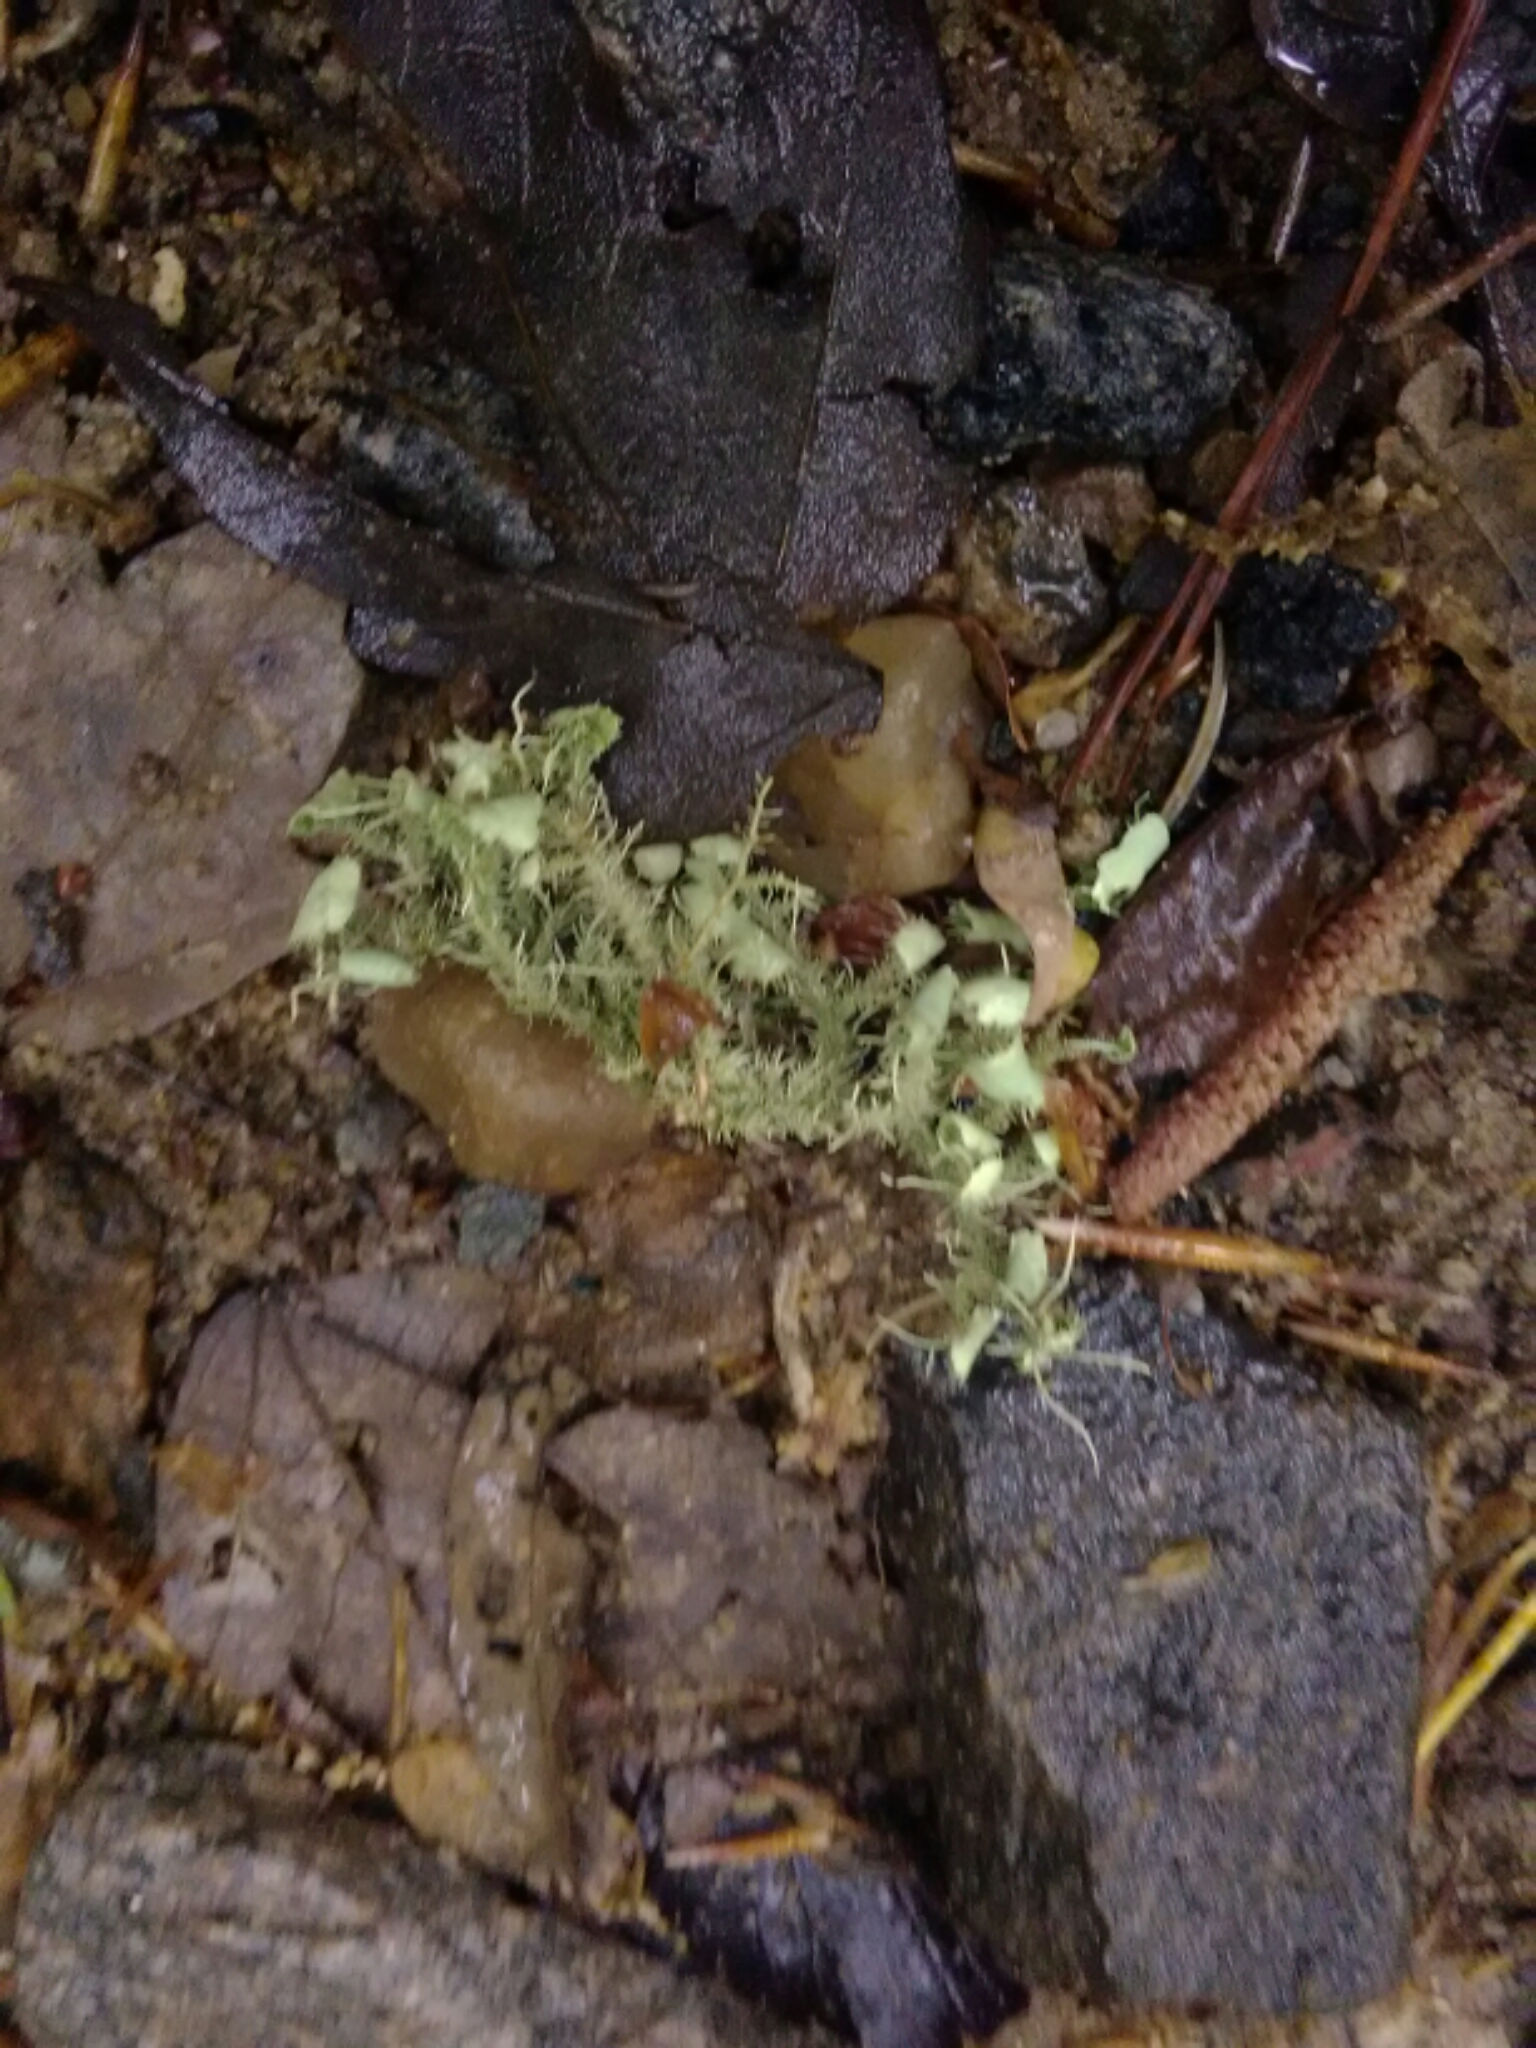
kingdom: Fungi
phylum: Ascomycota
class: Lecanoromycetes
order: Lecanorales
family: Parmeliaceae
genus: Usnea
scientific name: Usnea strigosa
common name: Bushy beard lichen
